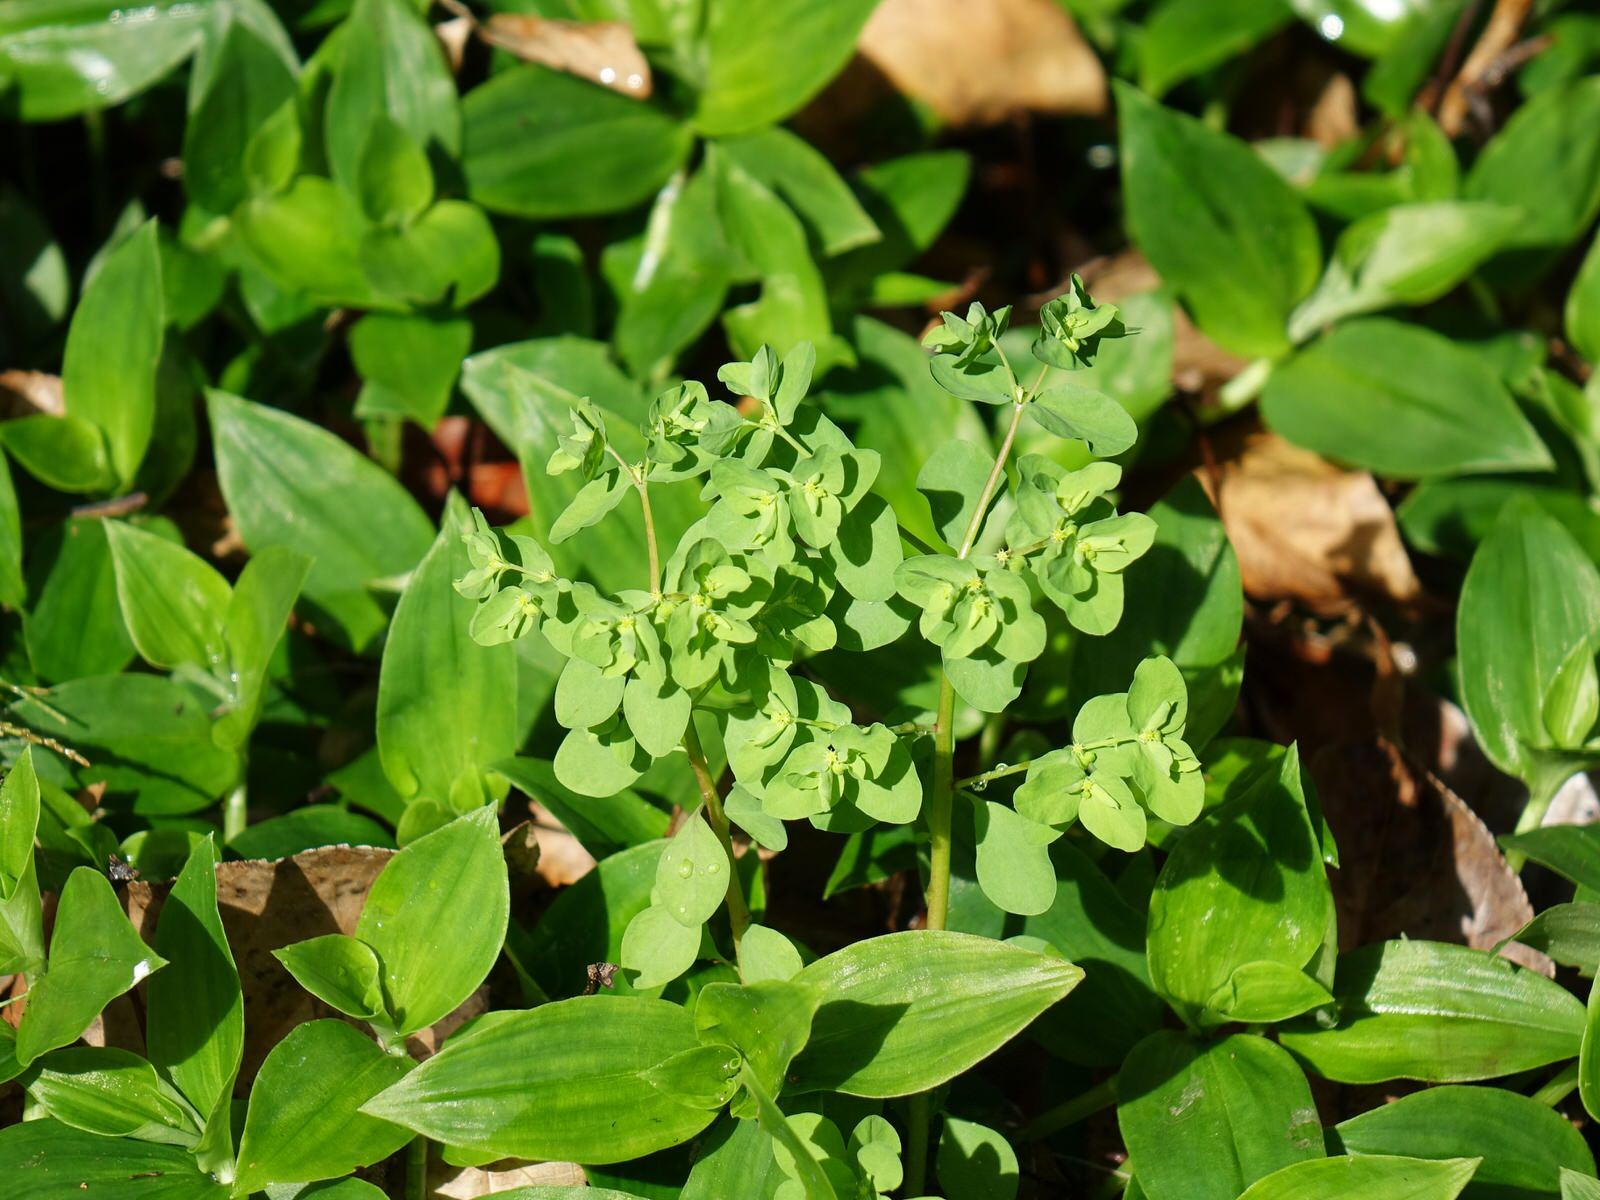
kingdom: Plantae
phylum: Tracheophyta
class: Magnoliopsida
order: Malpighiales
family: Euphorbiaceae
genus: Euphorbia
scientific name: Euphorbia peplus
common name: Petty spurge
